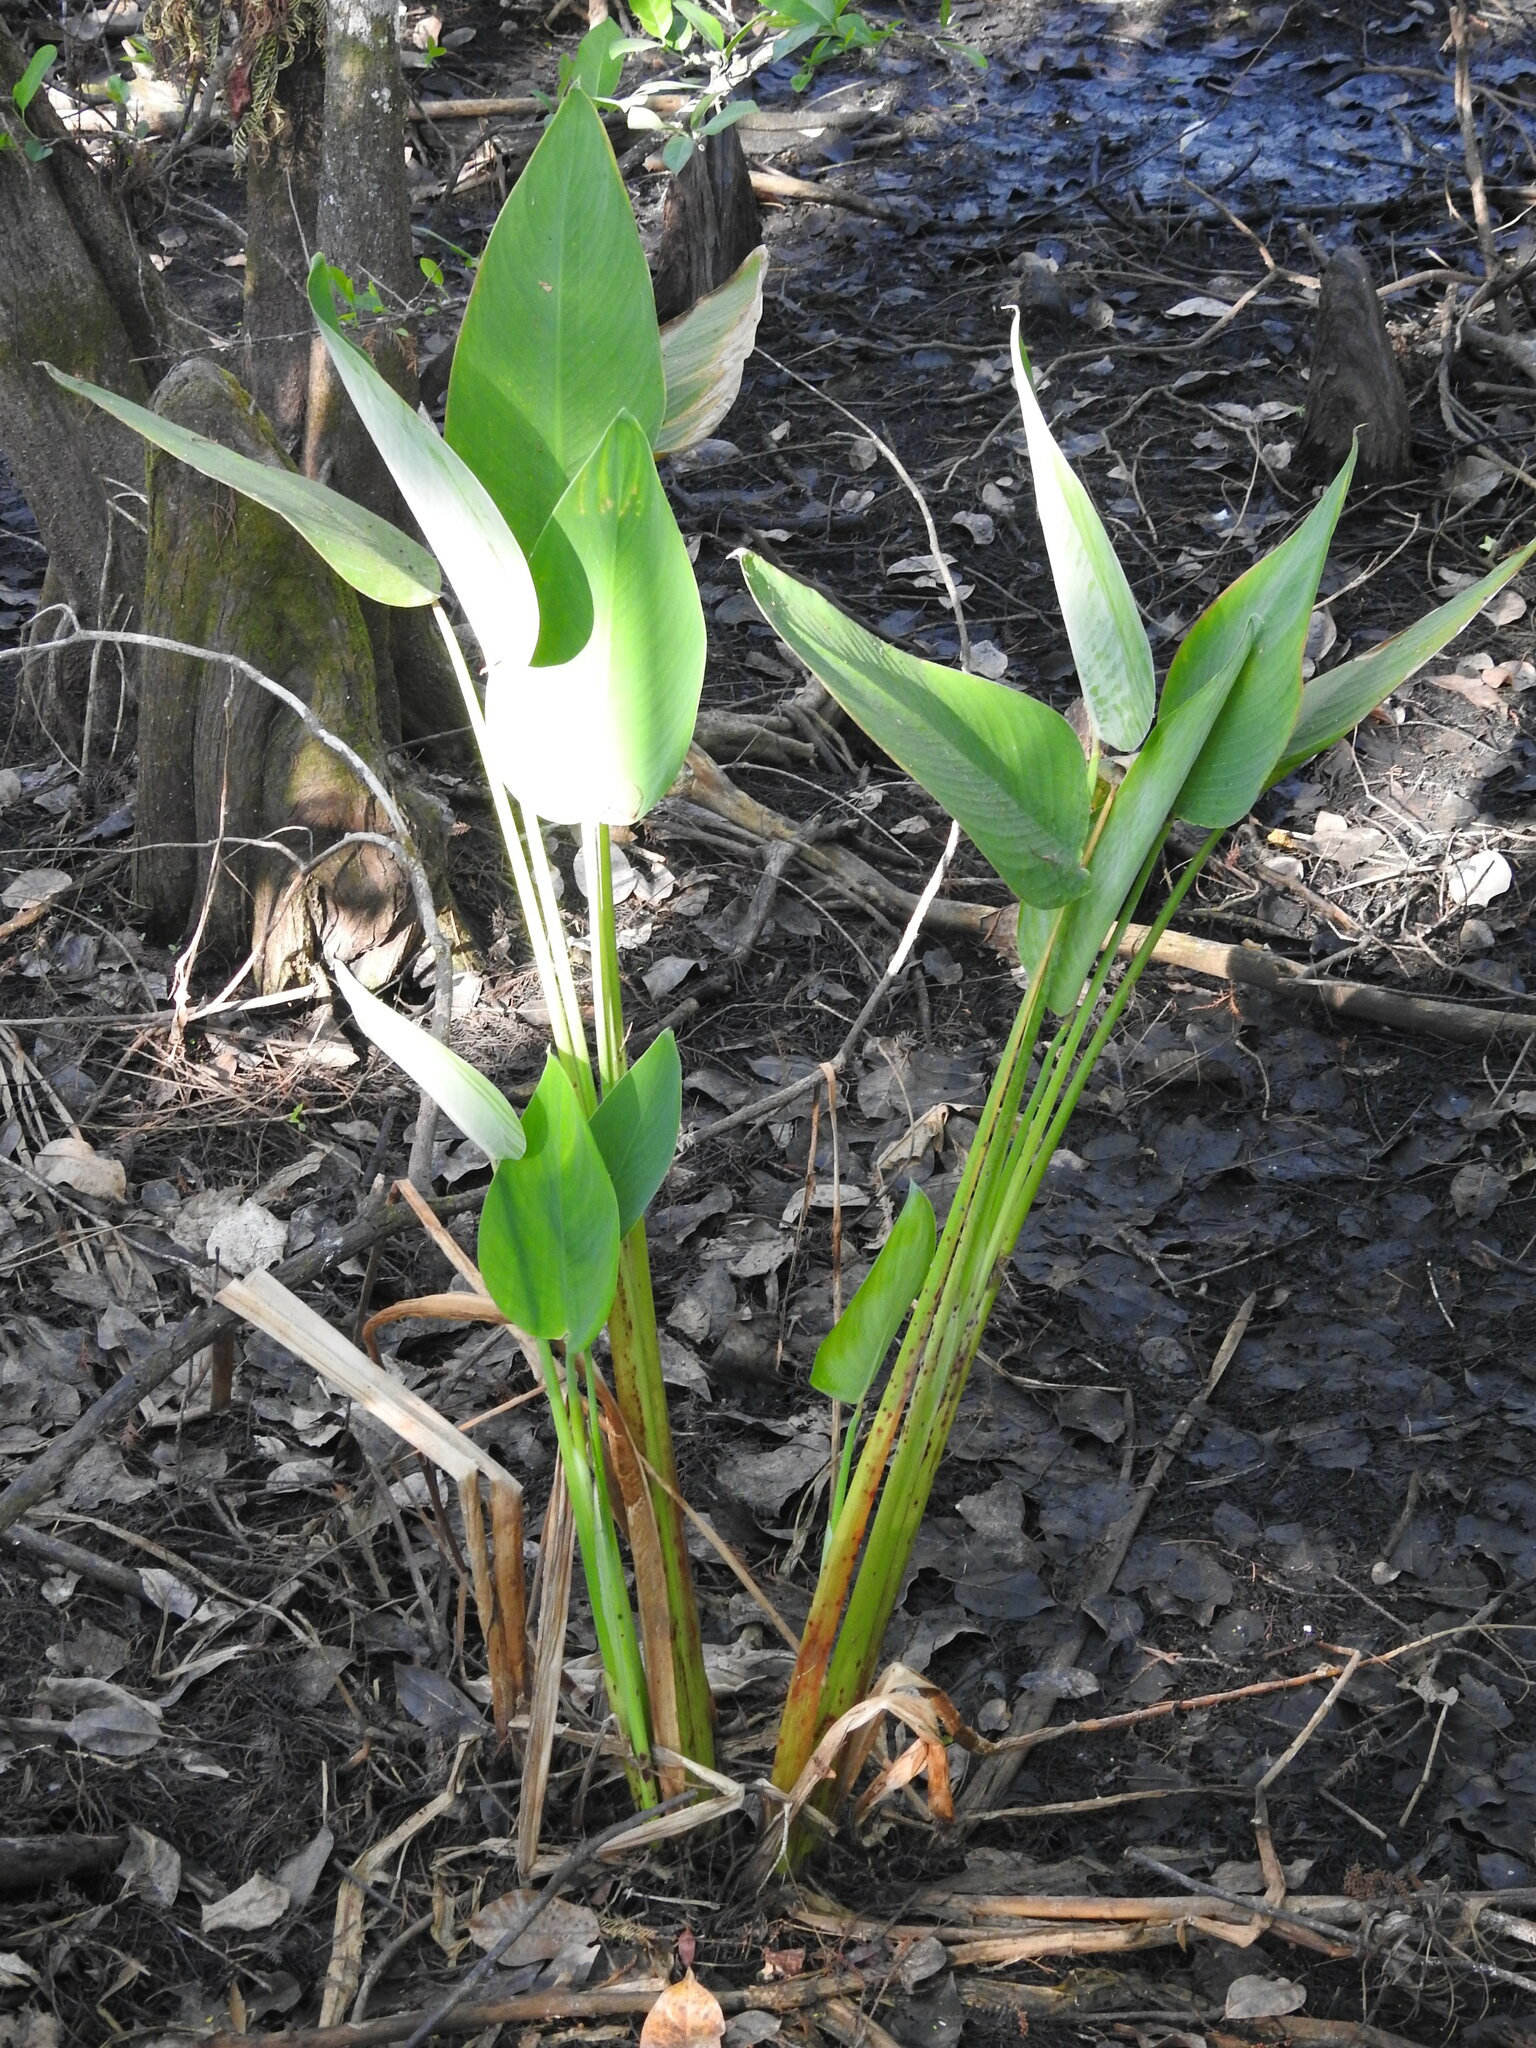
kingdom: Plantae
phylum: Tracheophyta
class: Liliopsida
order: Zingiberales
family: Marantaceae
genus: Thalia
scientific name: Thalia geniculata
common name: Arrowroot
